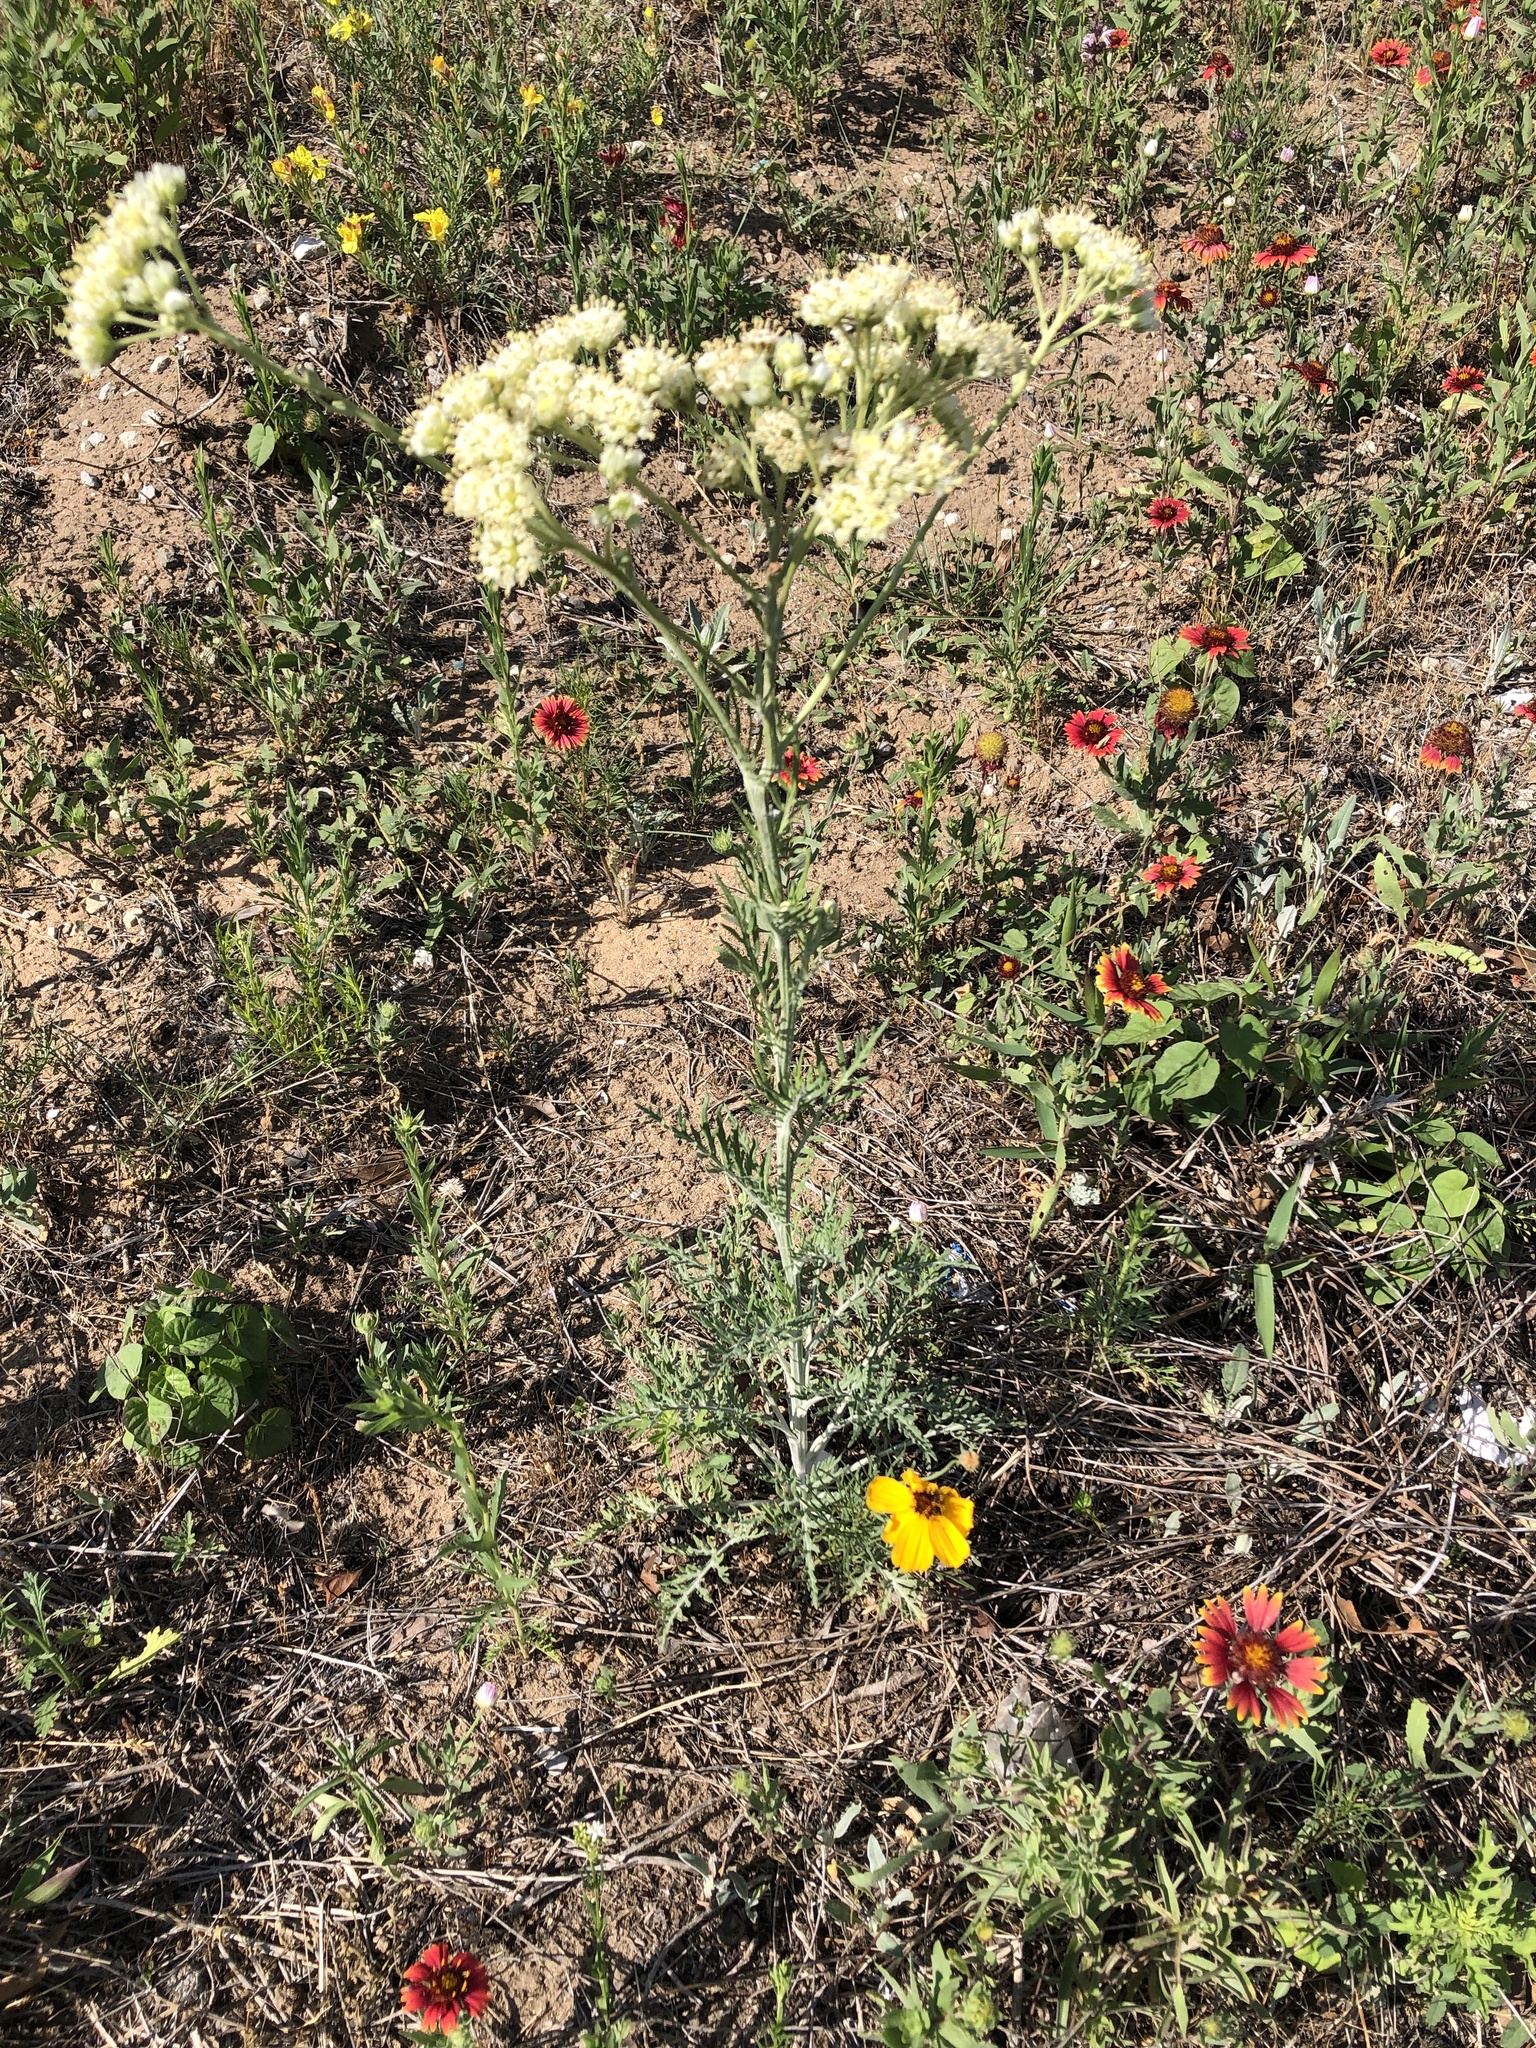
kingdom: Plantae
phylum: Tracheophyta
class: Magnoliopsida
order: Asterales
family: Asteraceae
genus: Hymenopappus
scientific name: Hymenopappus scabiosaeus
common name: Carolina woollywhite
